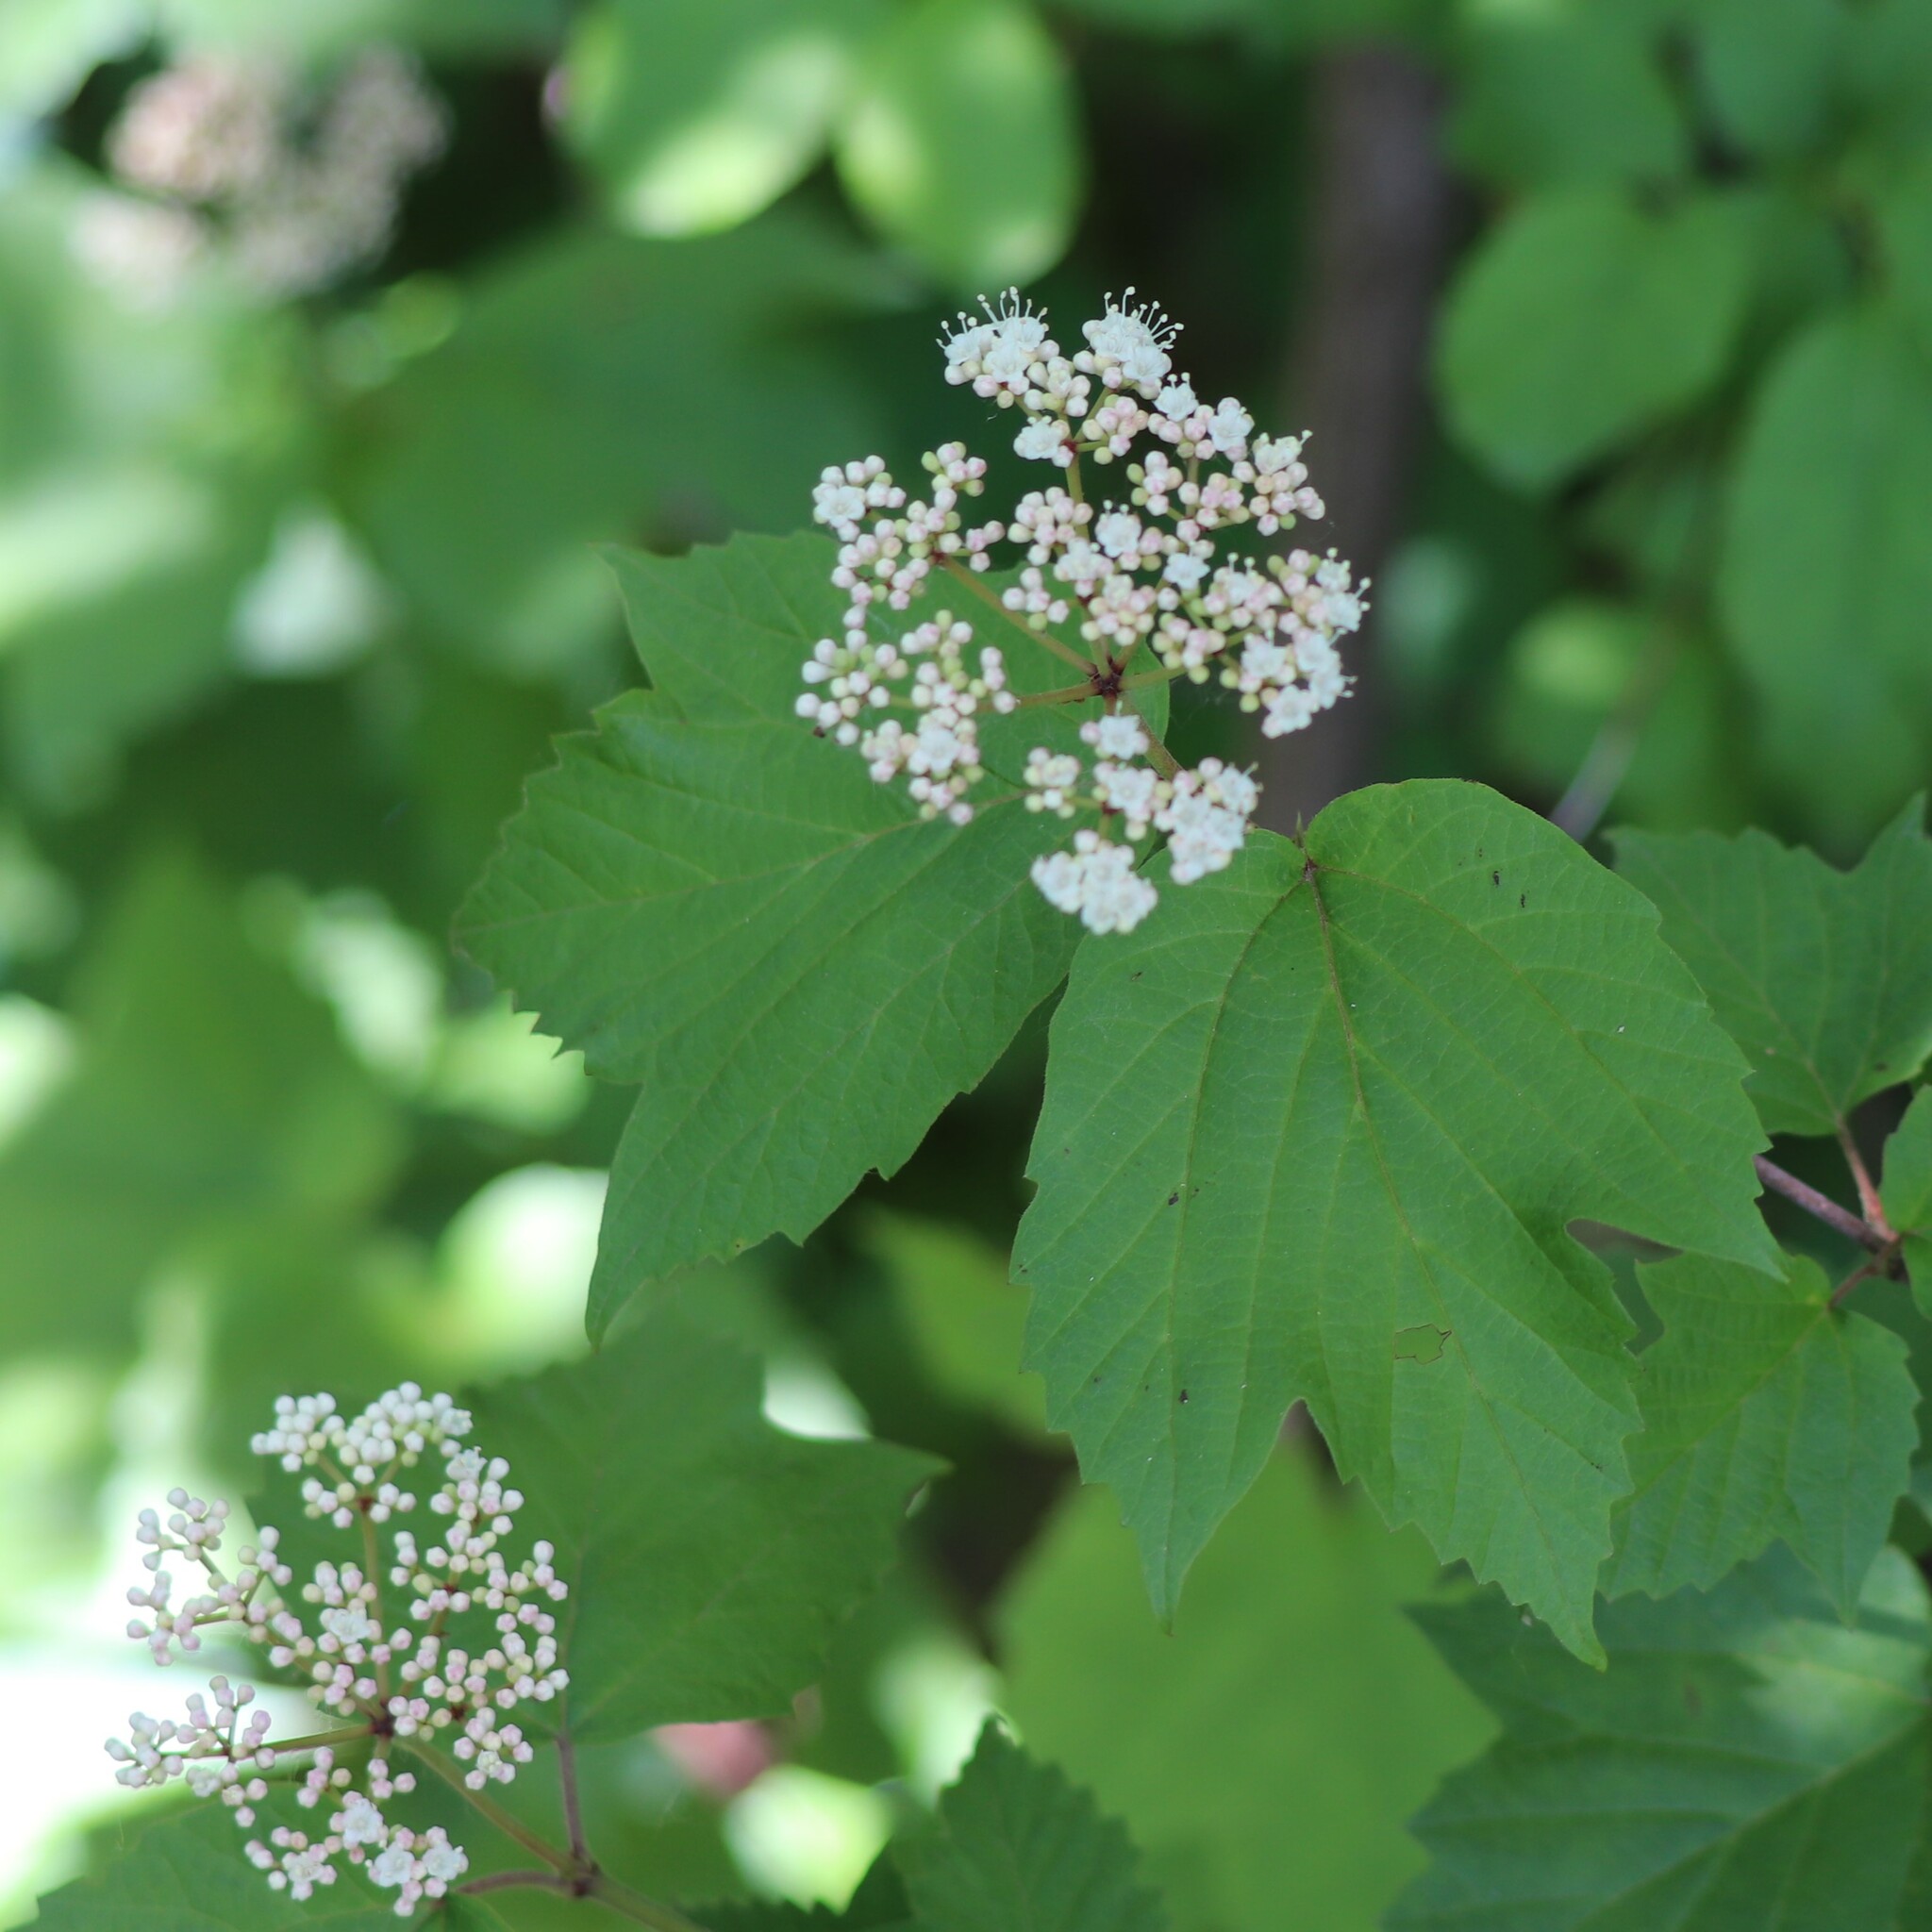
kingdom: Plantae
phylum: Tracheophyta
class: Magnoliopsida
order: Dipsacales
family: Viburnaceae
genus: Viburnum
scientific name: Viburnum acerifolium
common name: Dockmackie
